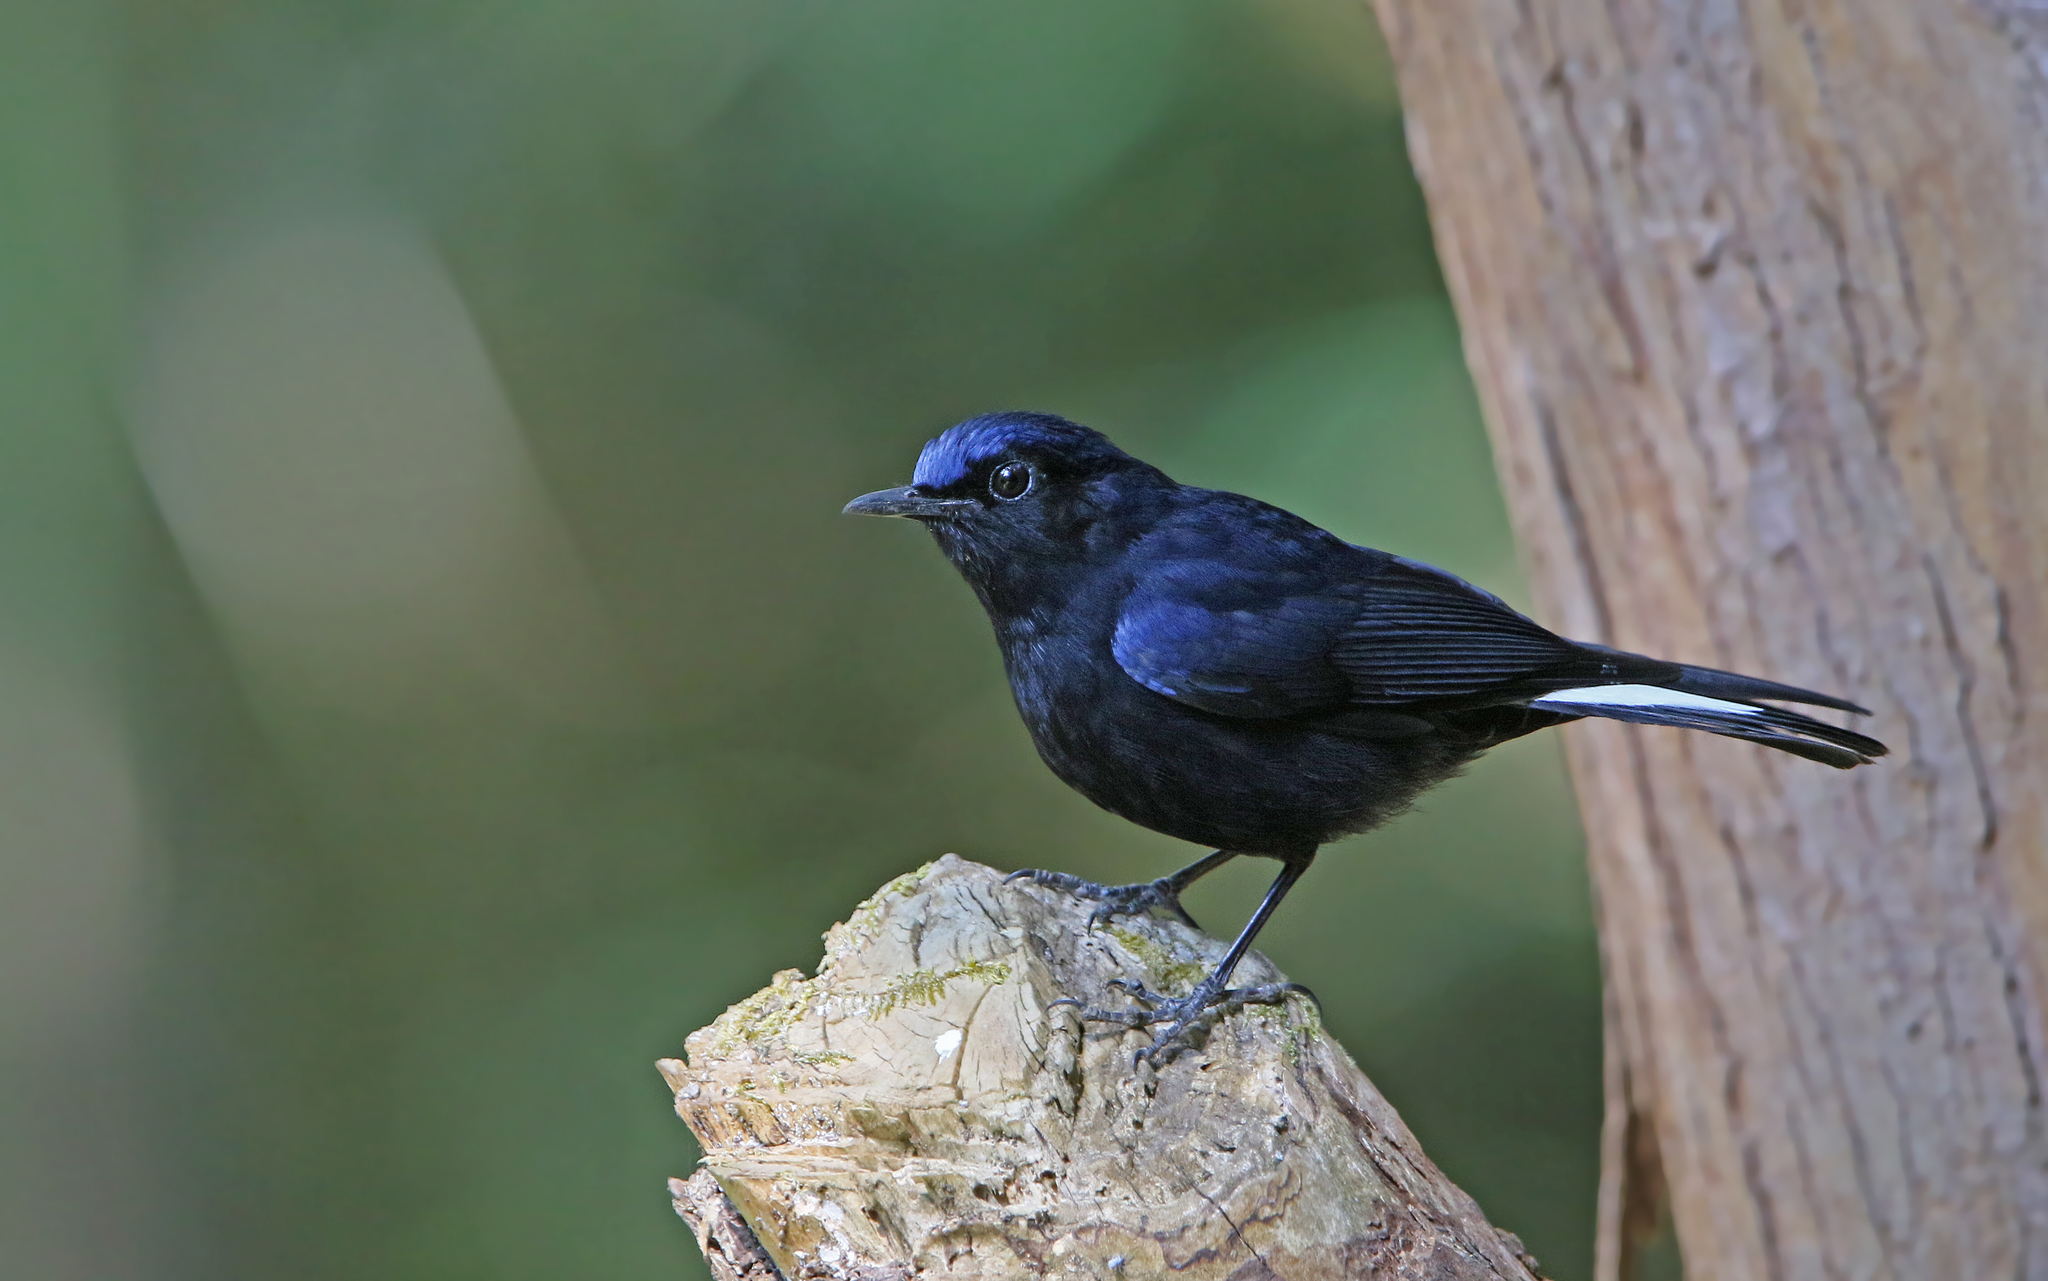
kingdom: Animalia
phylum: Chordata
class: Aves
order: Passeriformes
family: Muscicapidae
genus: Myiomela
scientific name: Myiomela leucura
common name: White-tailed robin
